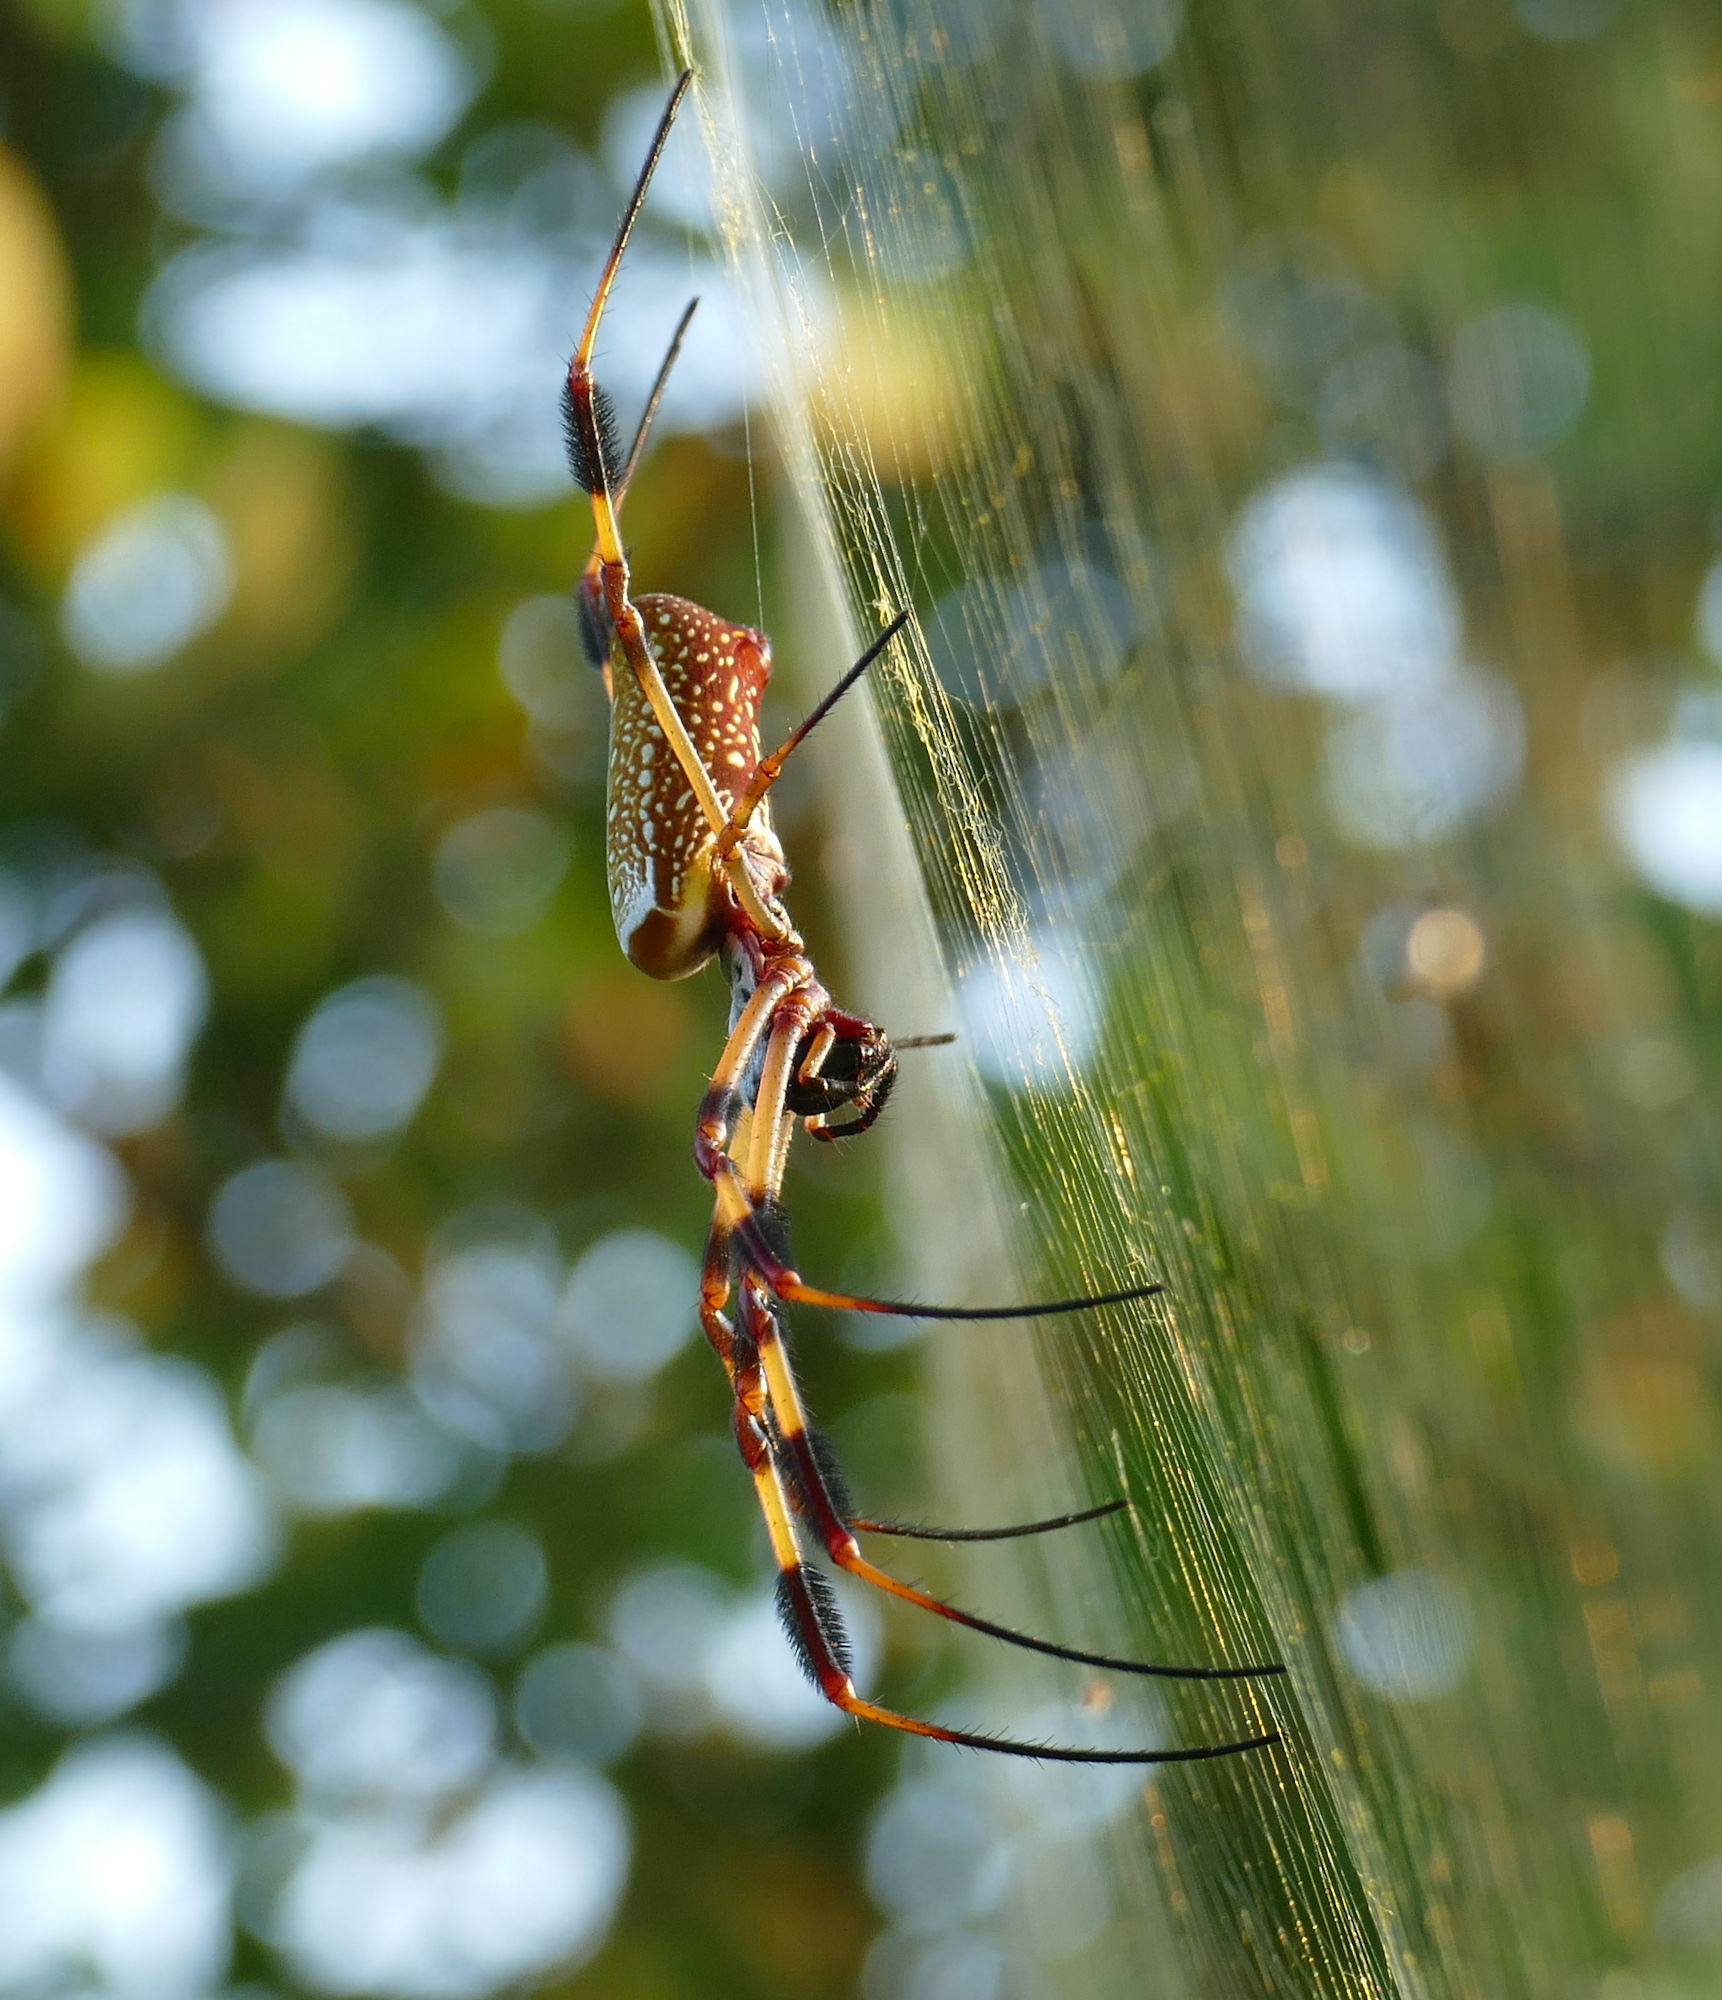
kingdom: Animalia
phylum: Arthropoda
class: Arachnida
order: Araneae
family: Araneidae
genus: Trichonephila
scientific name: Trichonephila clavipes
